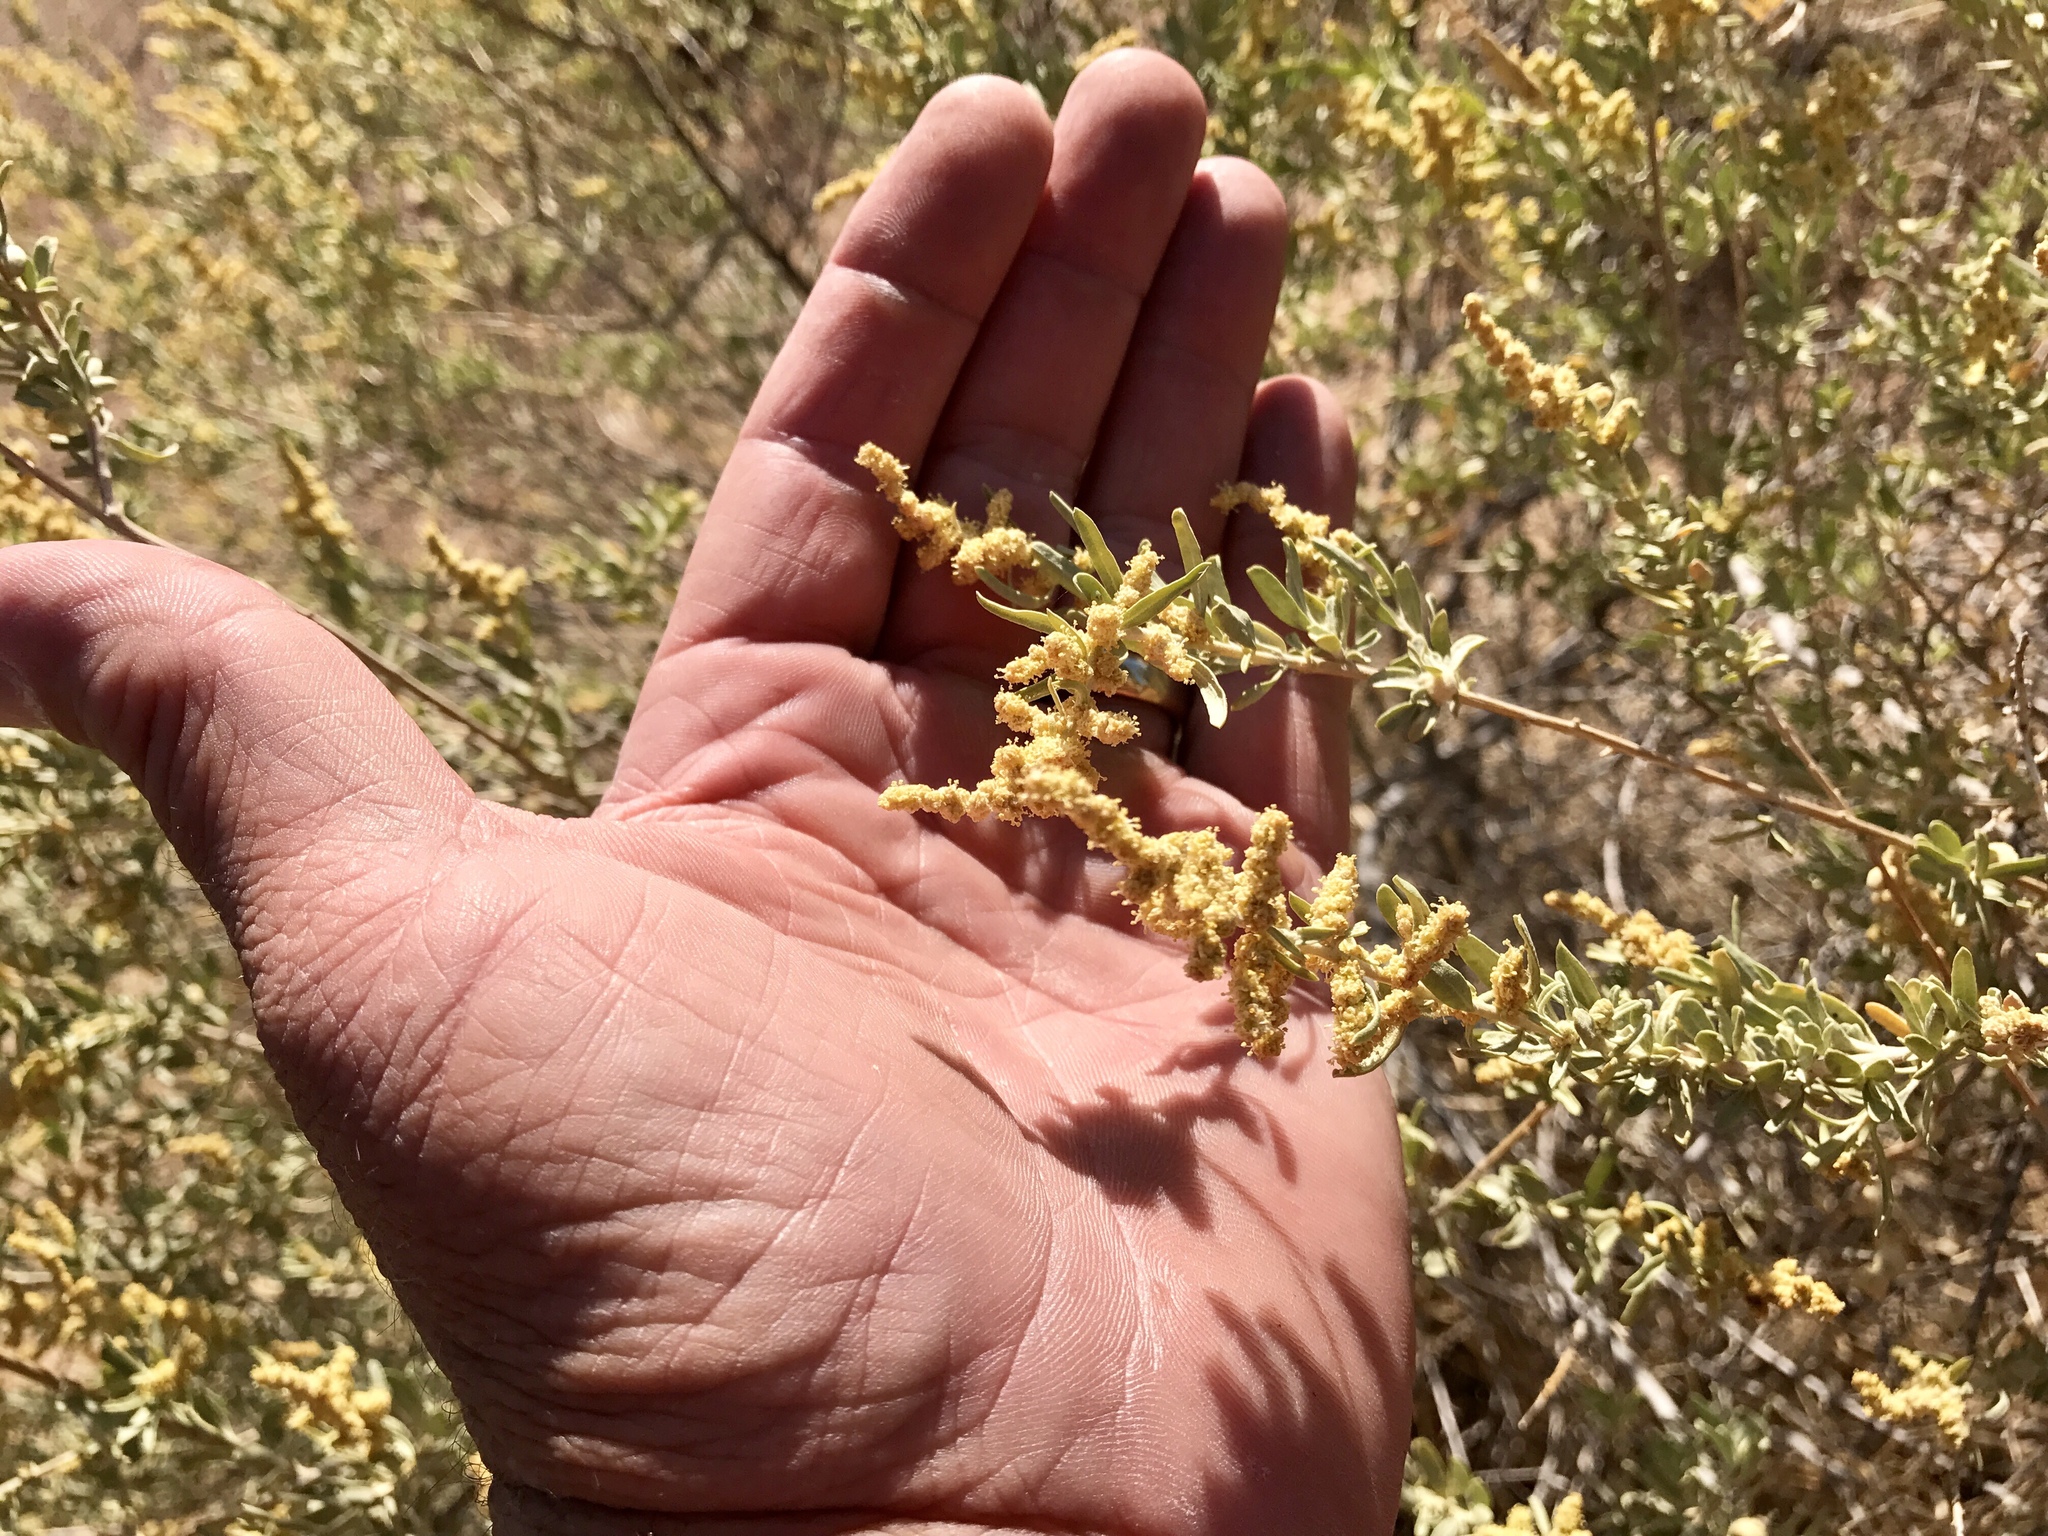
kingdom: Plantae
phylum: Tracheophyta
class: Magnoliopsida
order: Caryophyllales
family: Amaranthaceae
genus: Atriplex
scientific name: Atriplex canescens
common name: Four-wing saltbush
